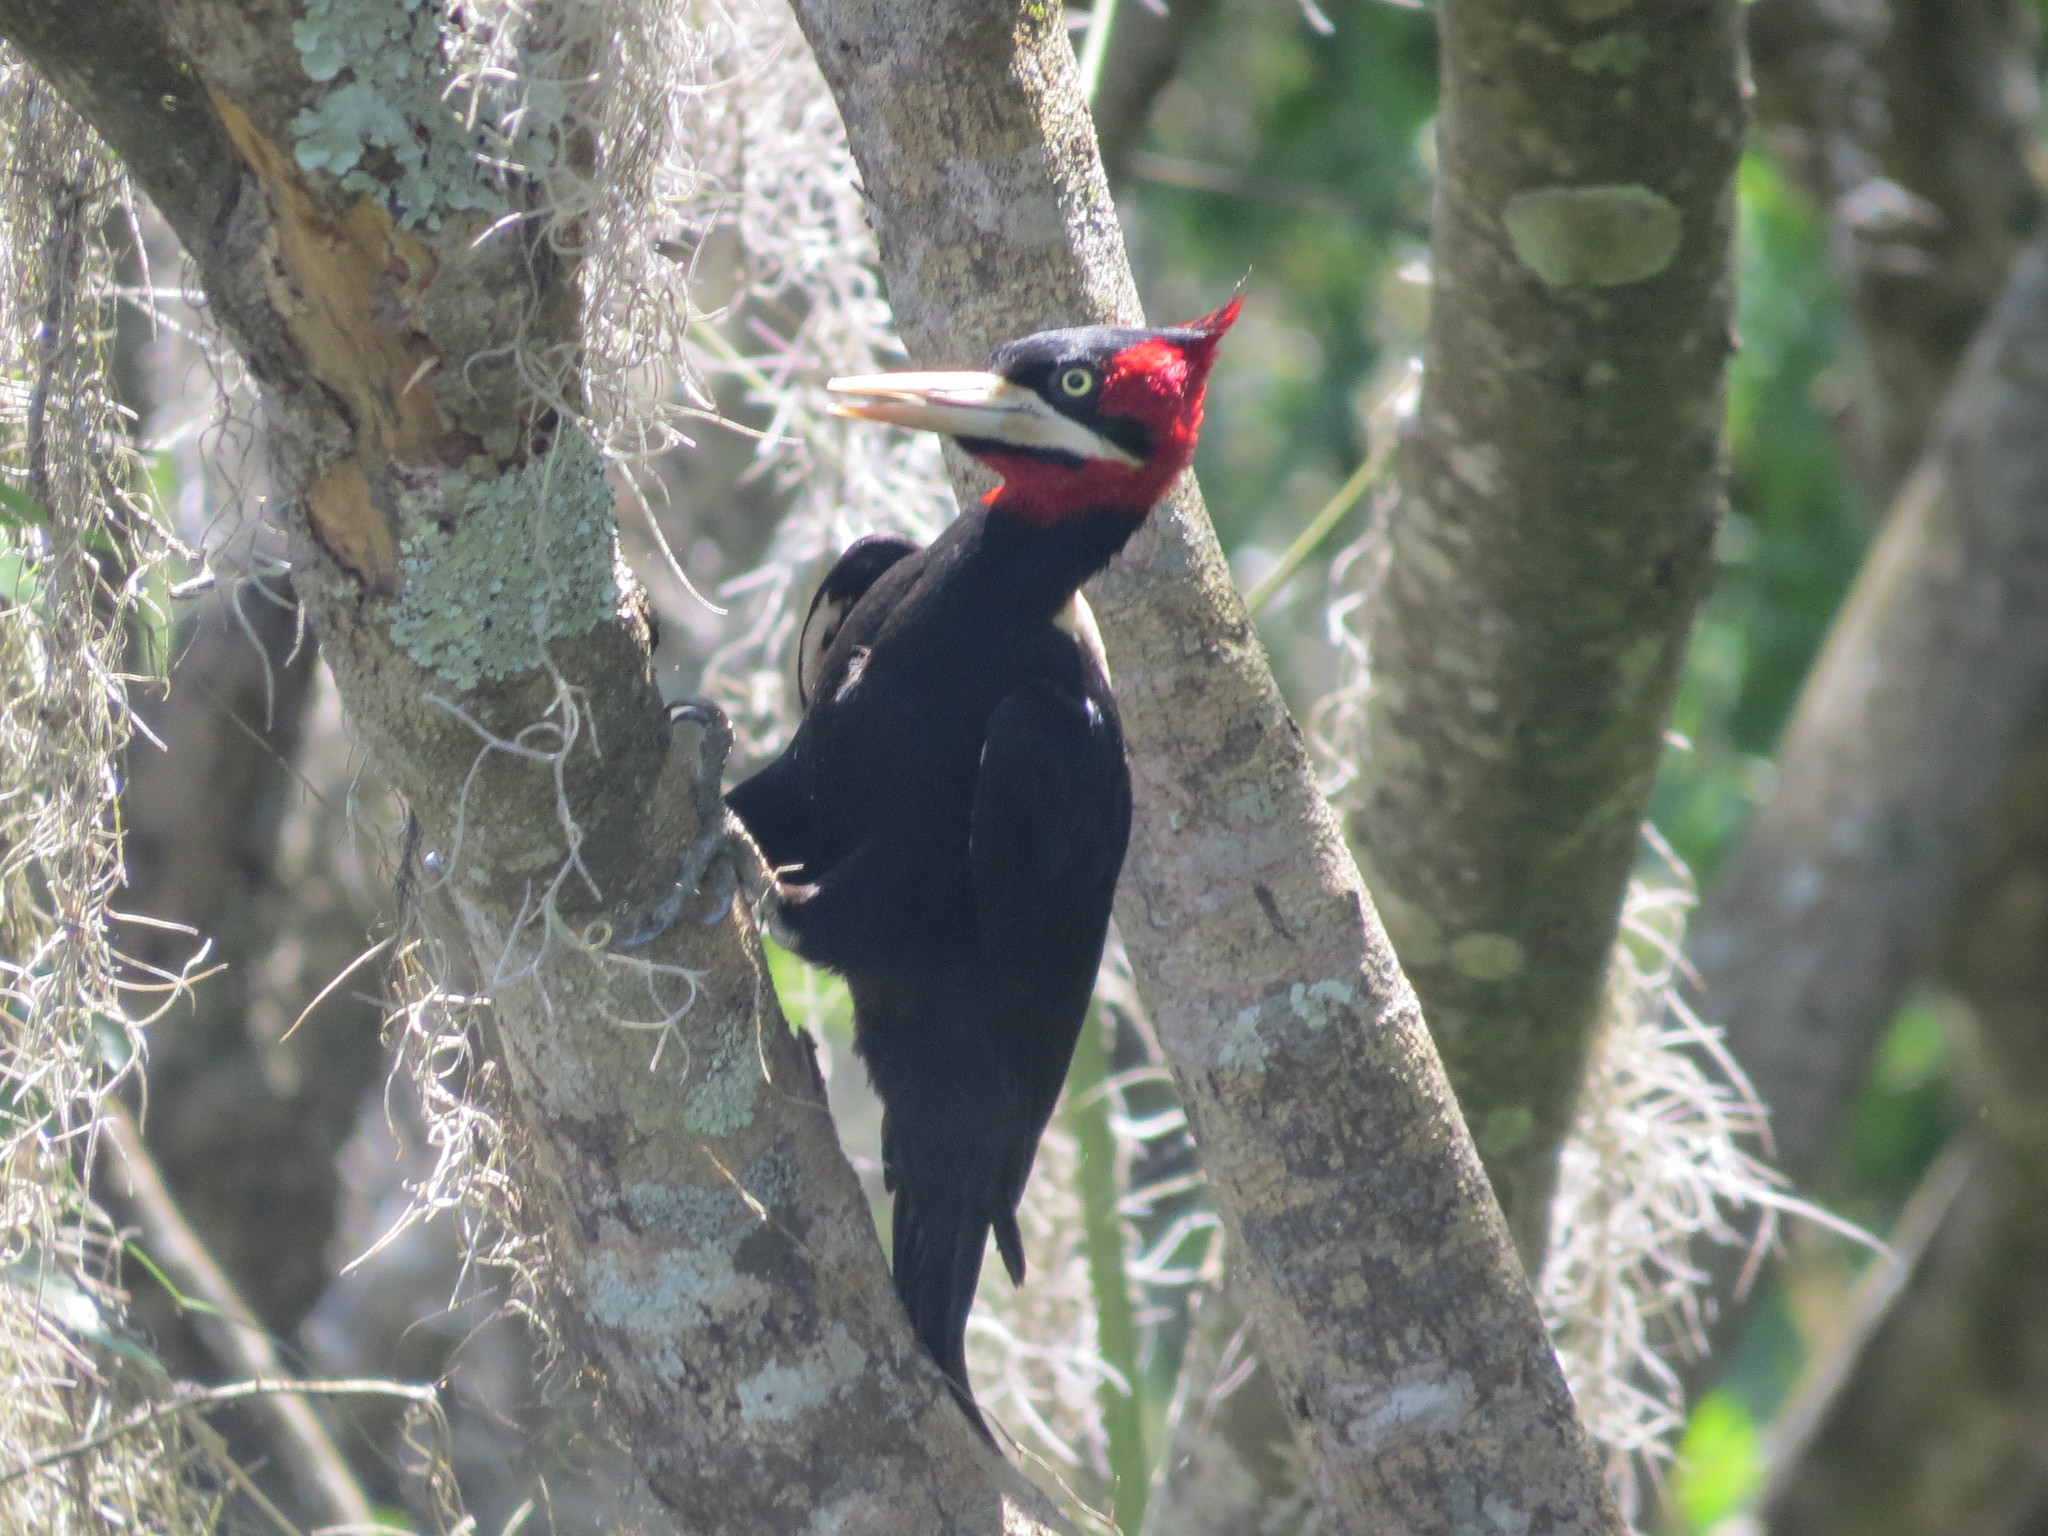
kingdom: Animalia
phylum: Chordata
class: Aves
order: Piciformes
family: Picidae
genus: Campephilus
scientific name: Campephilus leucopogon
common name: Cream-backed woodpecker
